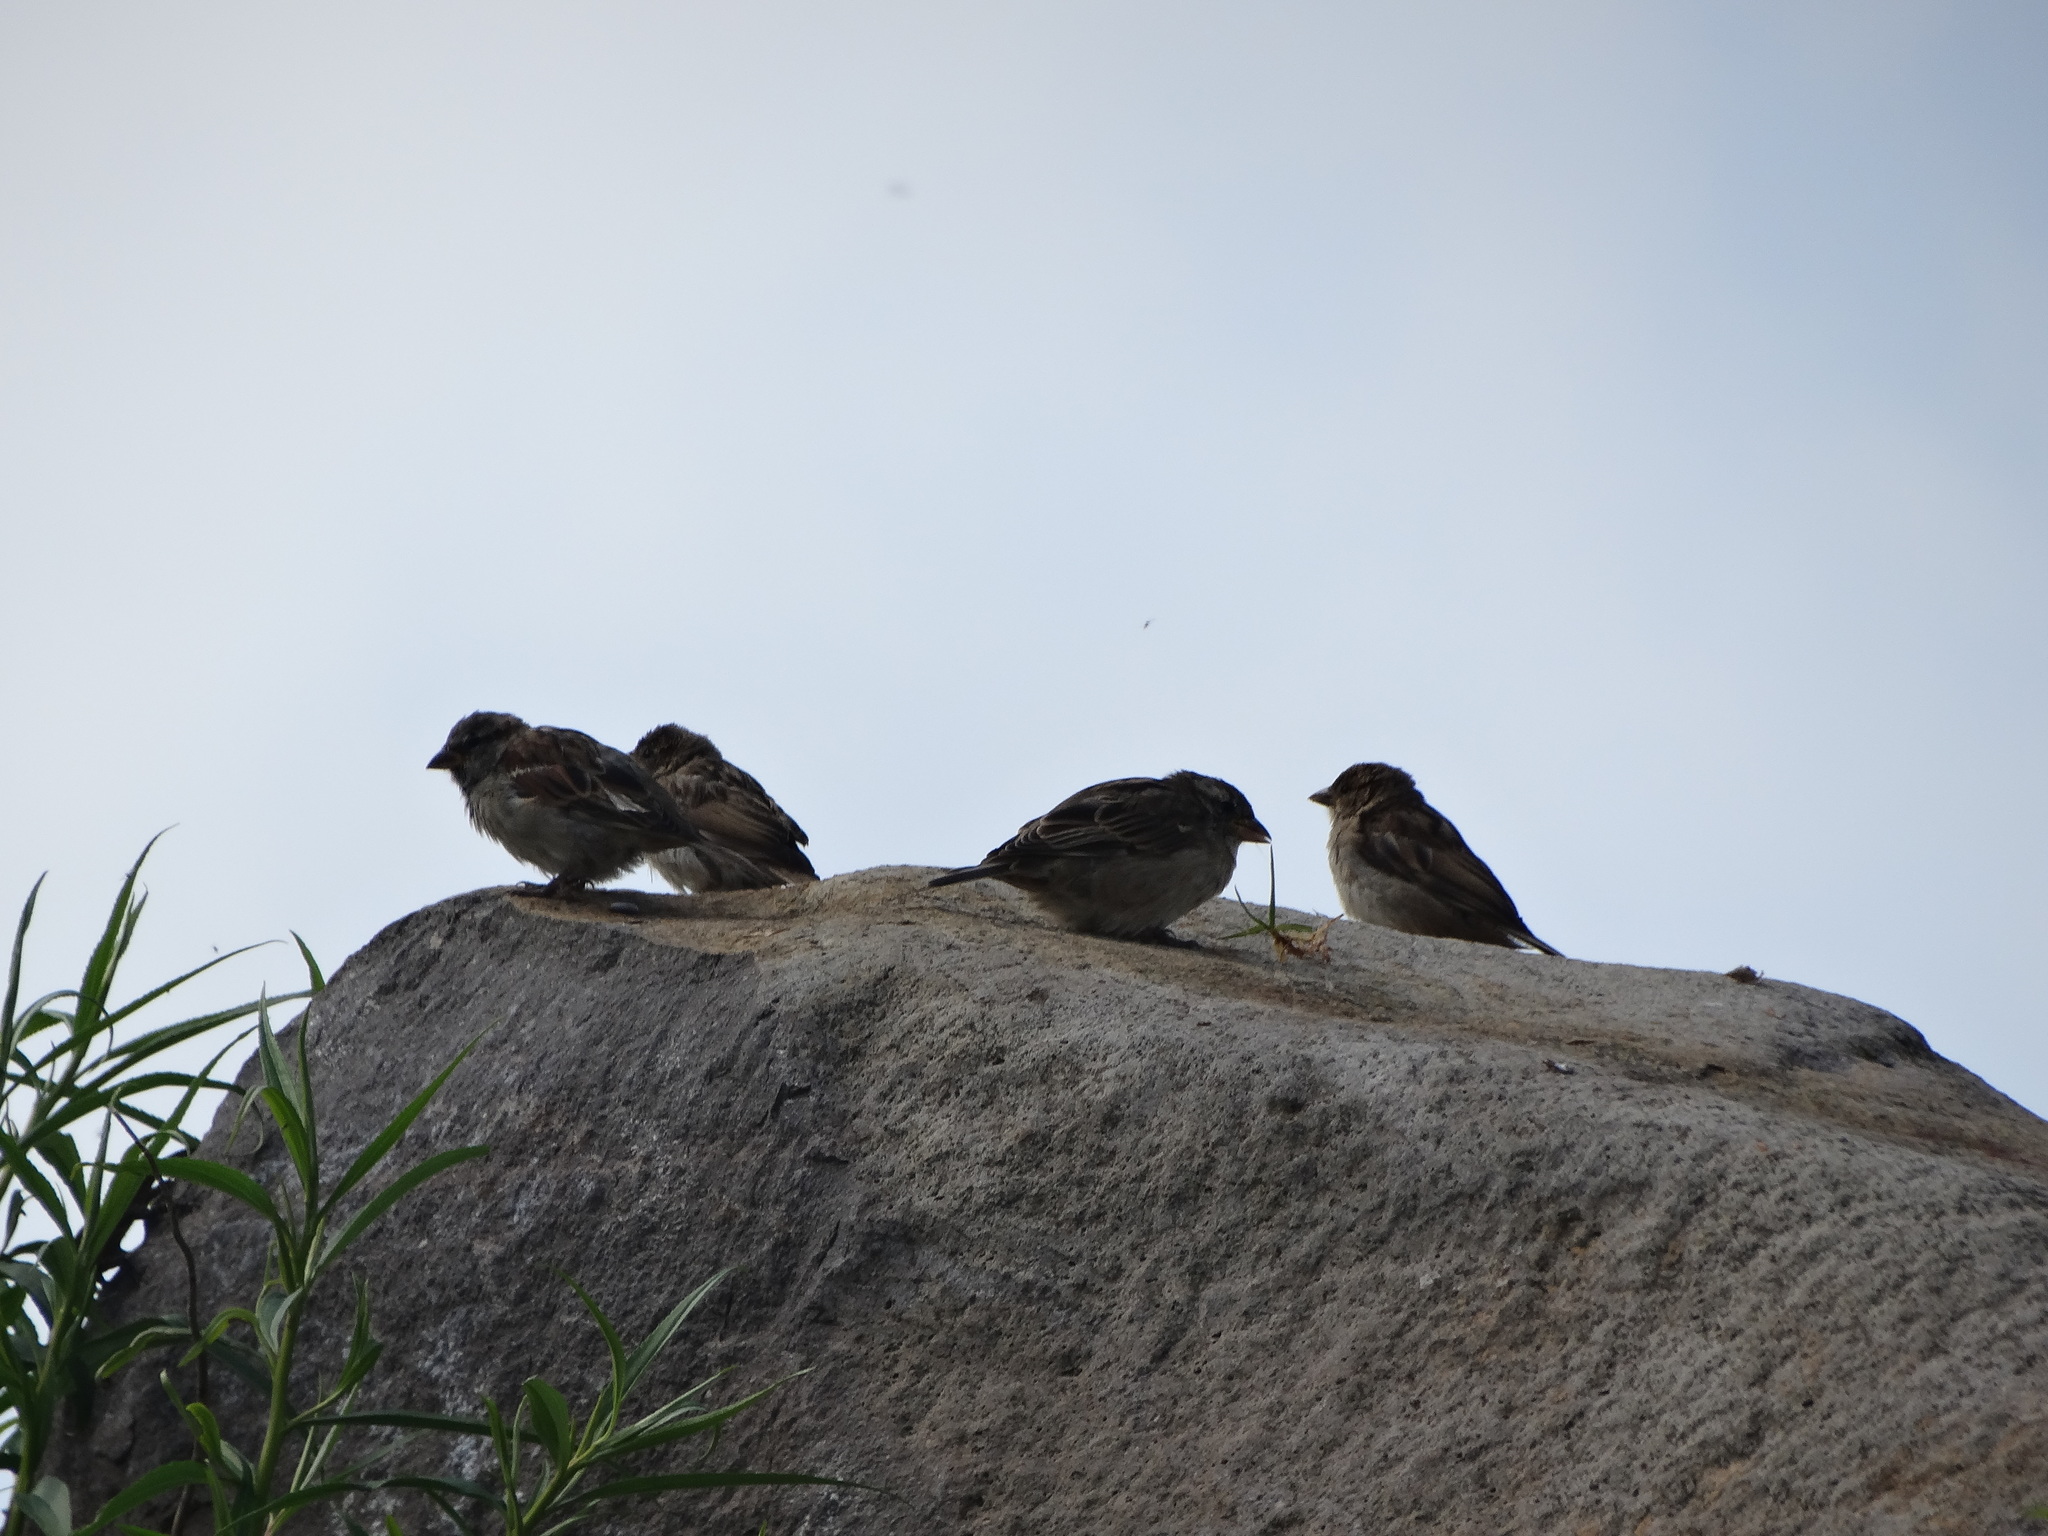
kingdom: Animalia
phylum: Chordata
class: Aves
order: Passeriformes
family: Passeridae
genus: Passer
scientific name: Passer domesticus
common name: House sparrow
